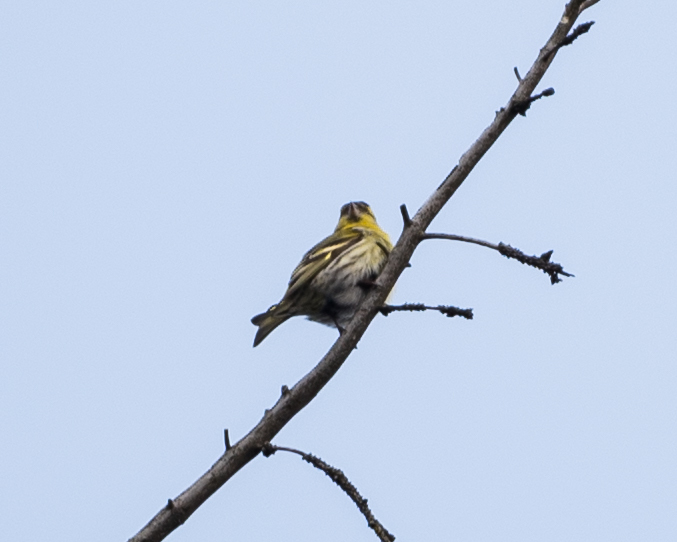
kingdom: Animalia
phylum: Chordata
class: Aves
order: Passeriformes
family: Fringillidae
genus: Spinus
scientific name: Spinus spinus
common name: Eurasian siskin
